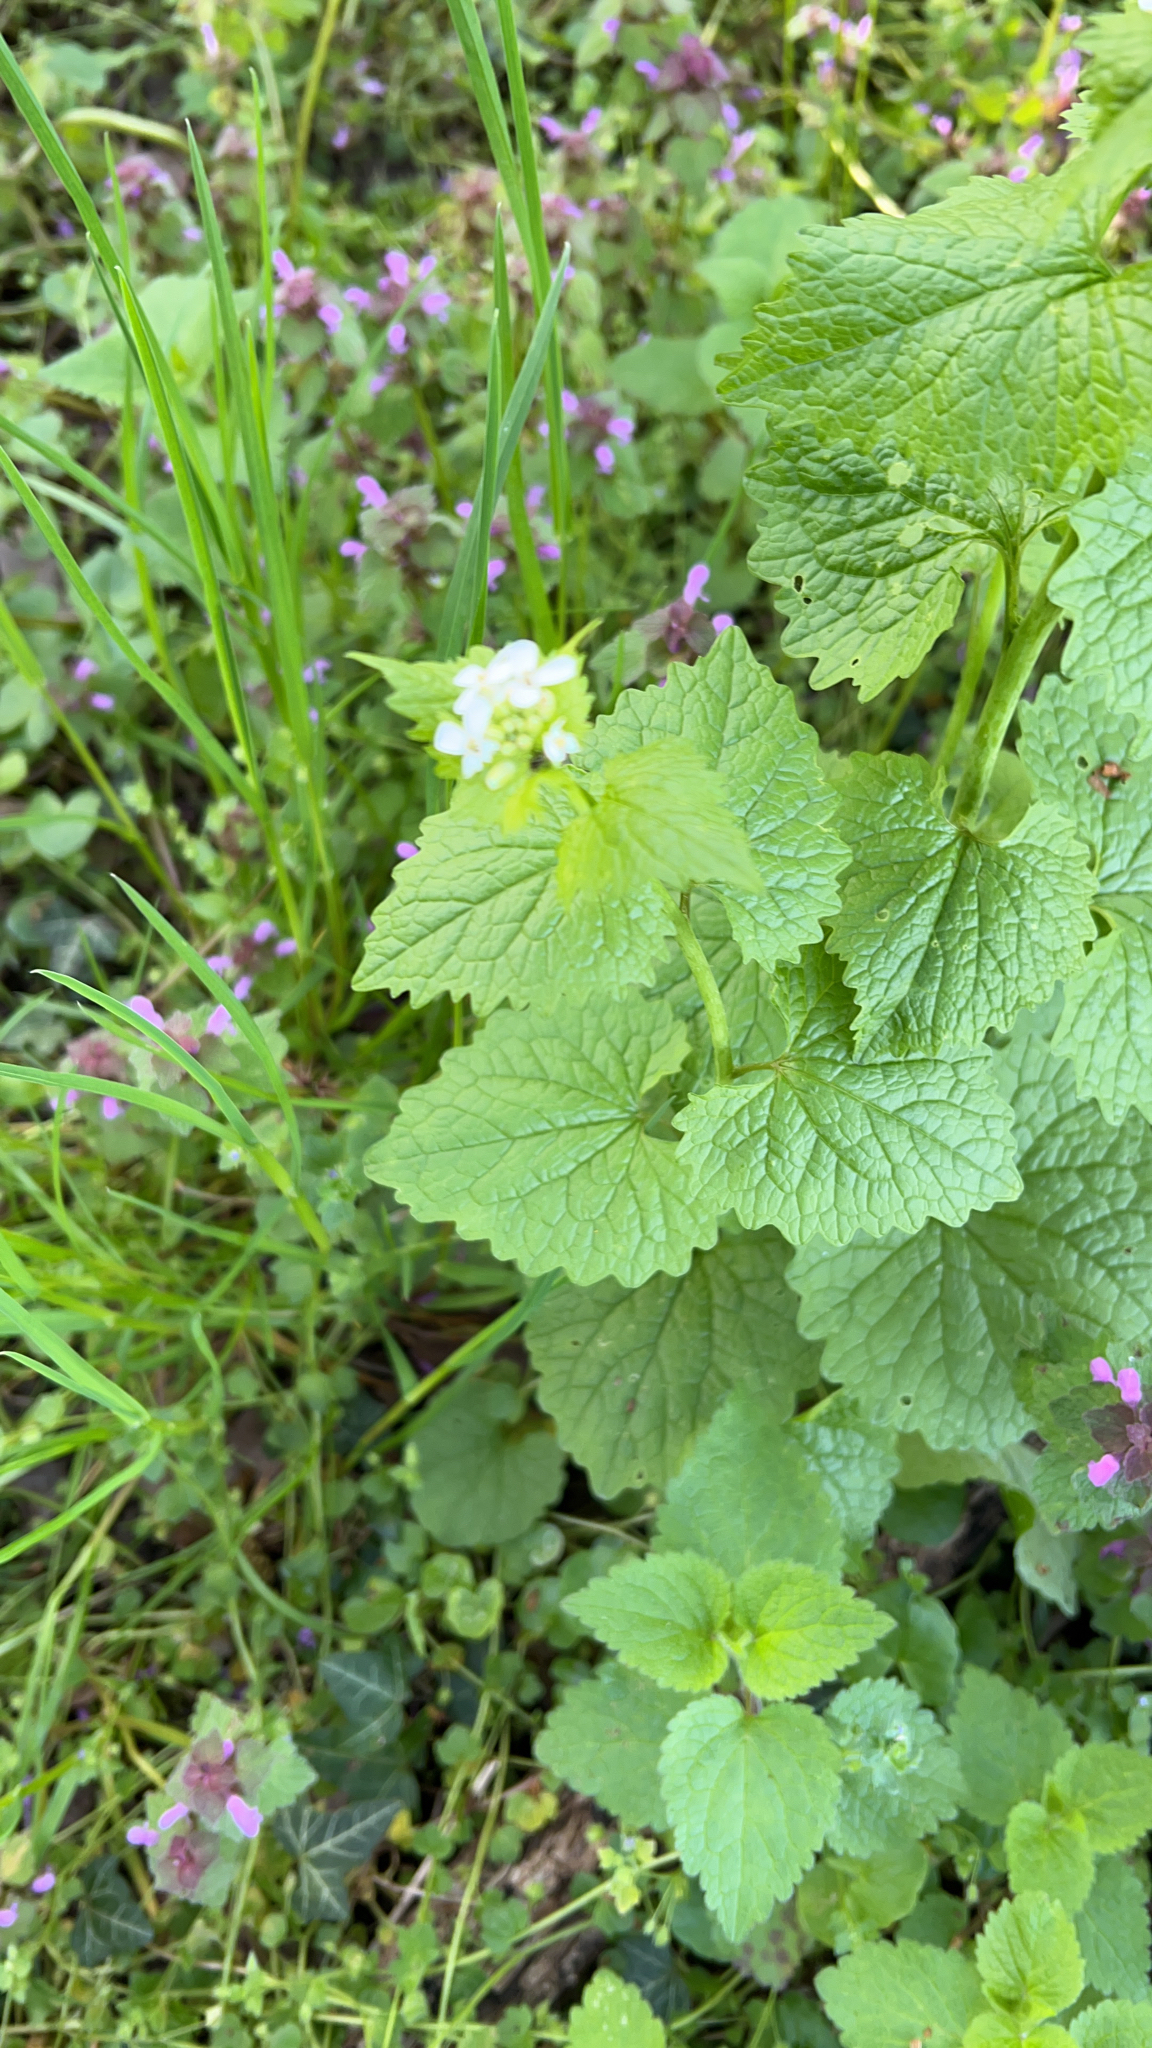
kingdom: Plantae
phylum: Tracheophyta
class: Magnoliopsida
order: Brassicales
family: Brassicaceae
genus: Alliaria
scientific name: Alliaria petiolata
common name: Garlic mustard
